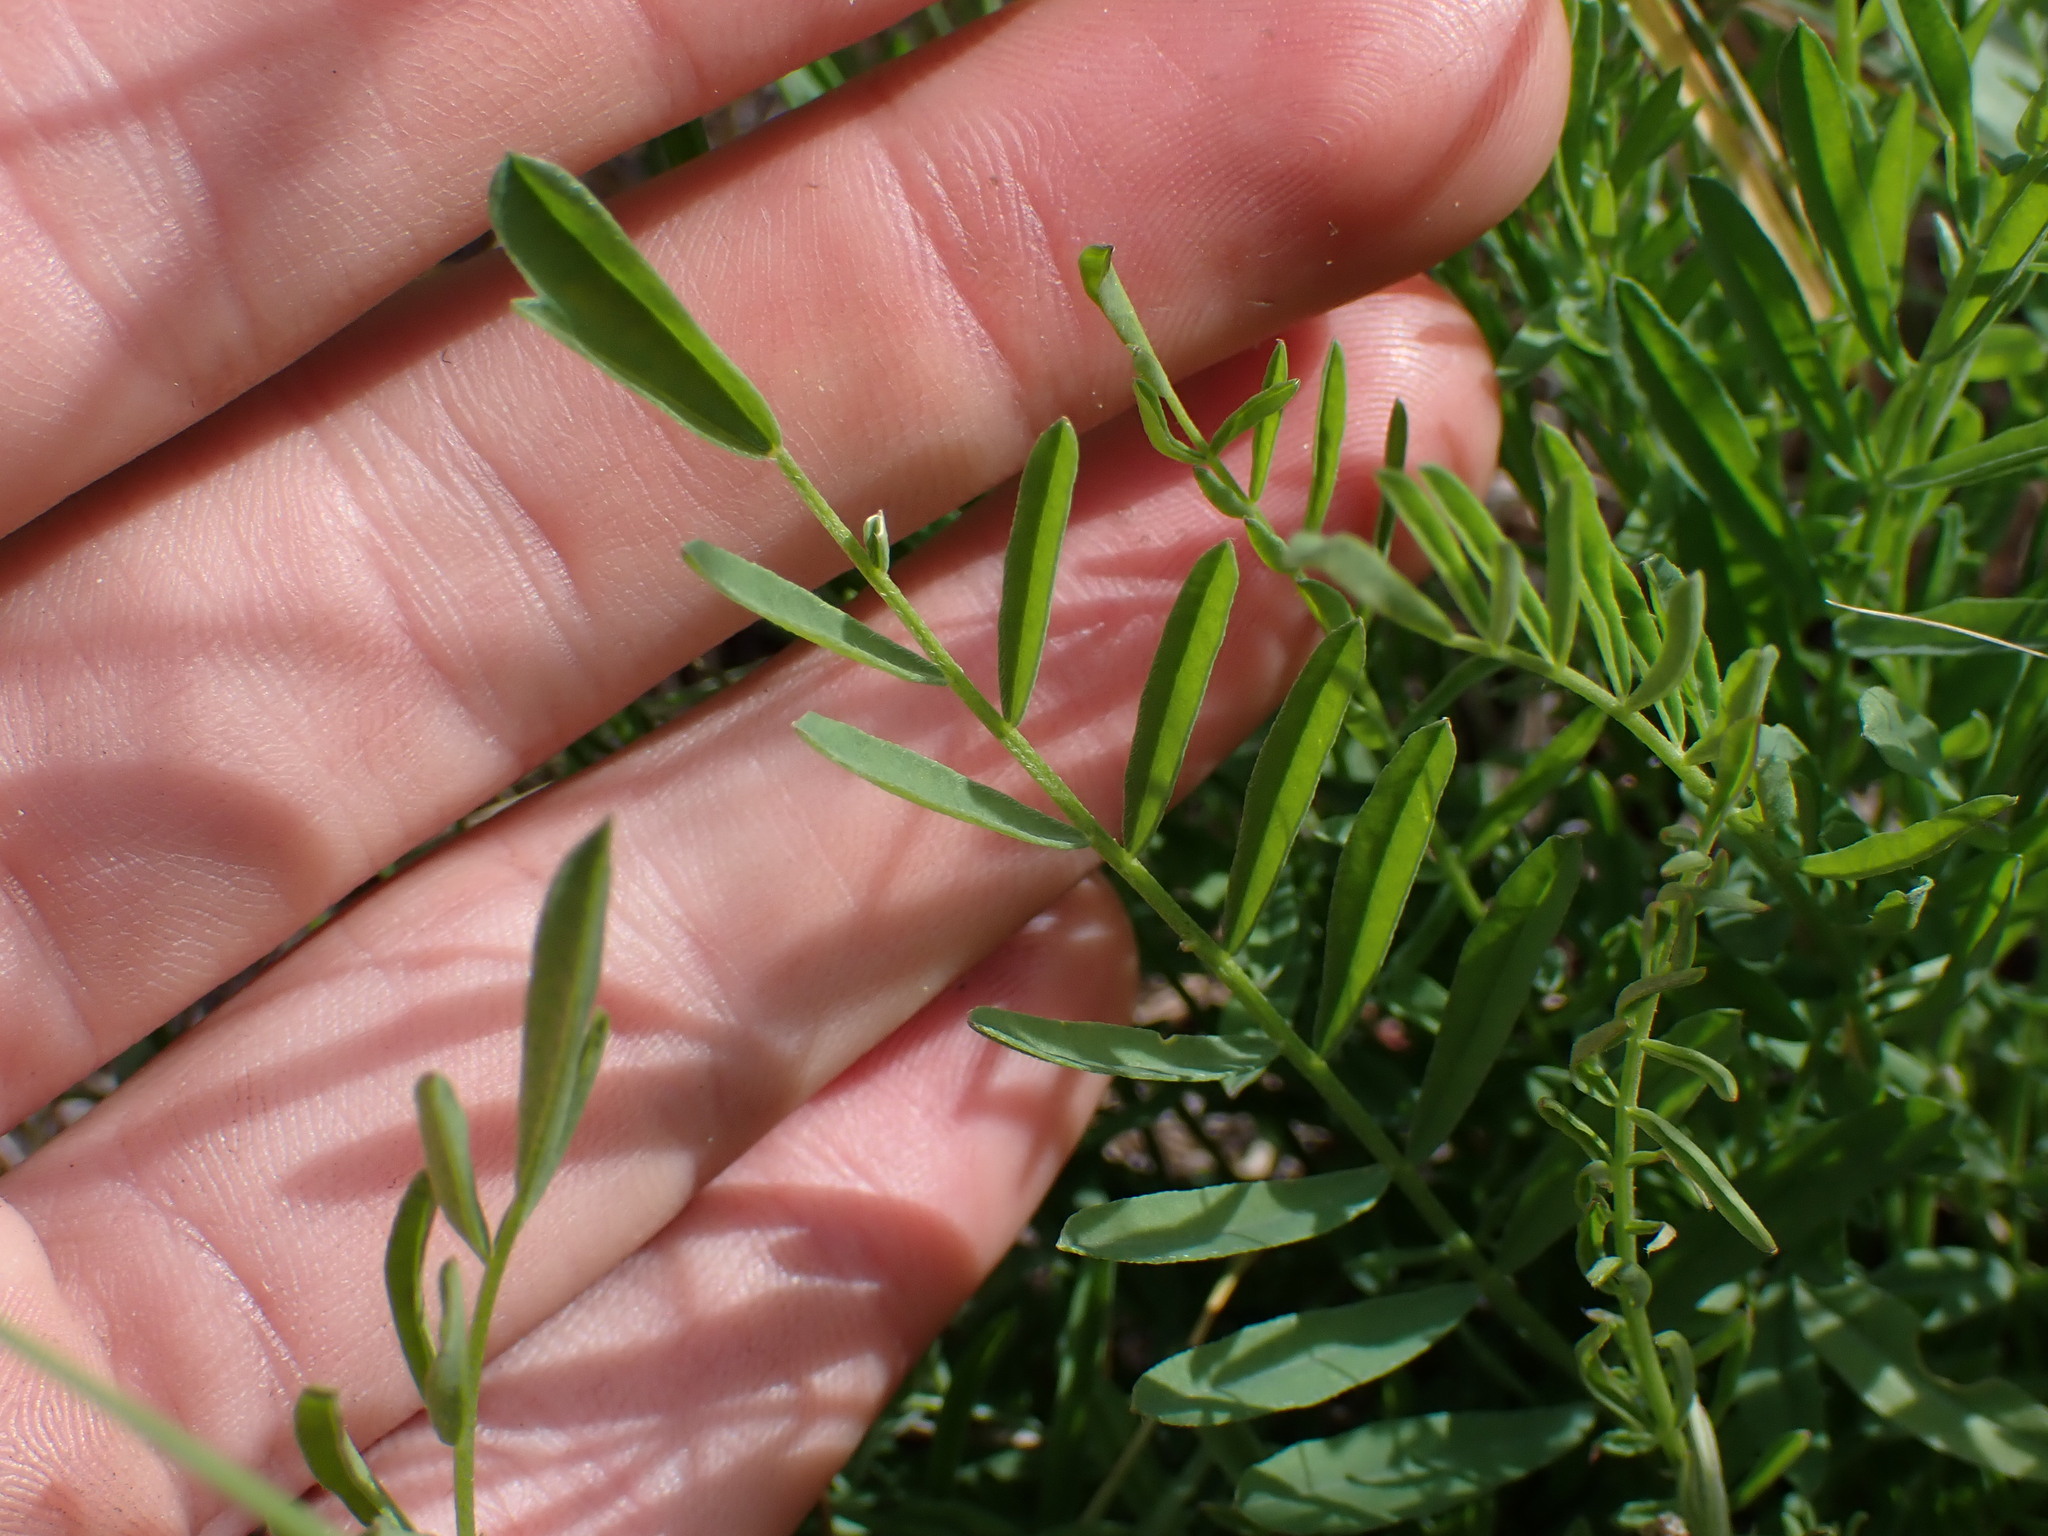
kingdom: Plantae
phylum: Tracheophyta
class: Magnoliopsida
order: Fabales
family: Fabaceae
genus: Astragalus
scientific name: Astragalus miser
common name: Timber milkvetch
